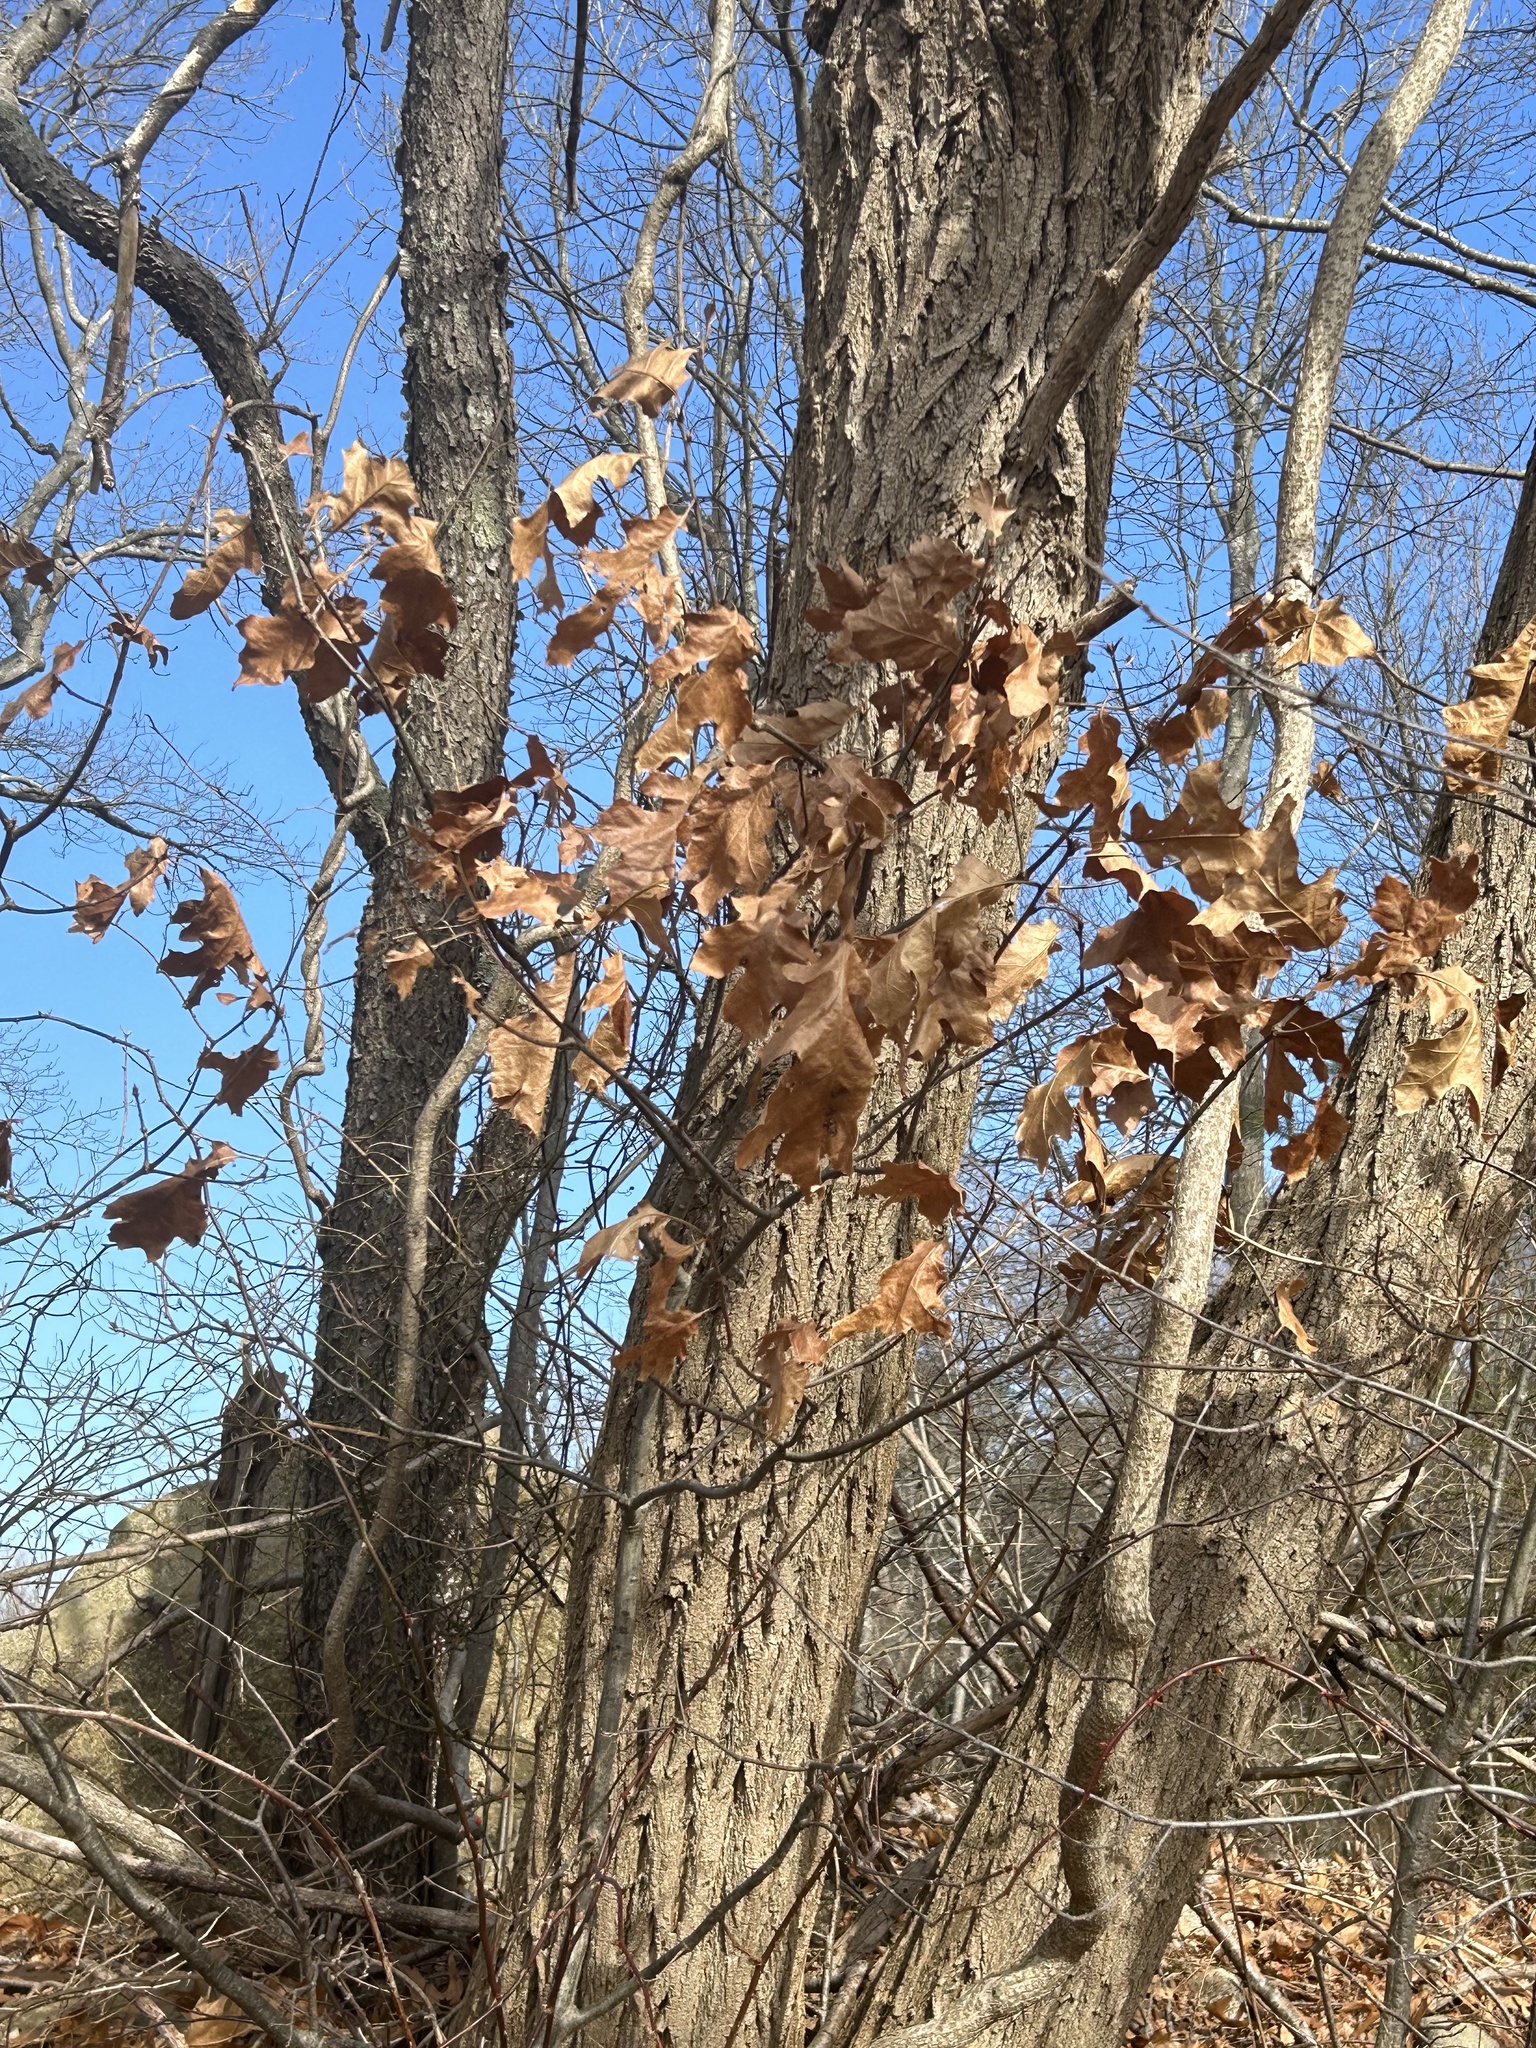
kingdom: Plantae
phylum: Tracheophyta
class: Magnoliopsida
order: Fagales
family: Fagaceae
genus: Quercus
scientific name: Quercus rubra
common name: Red oak
